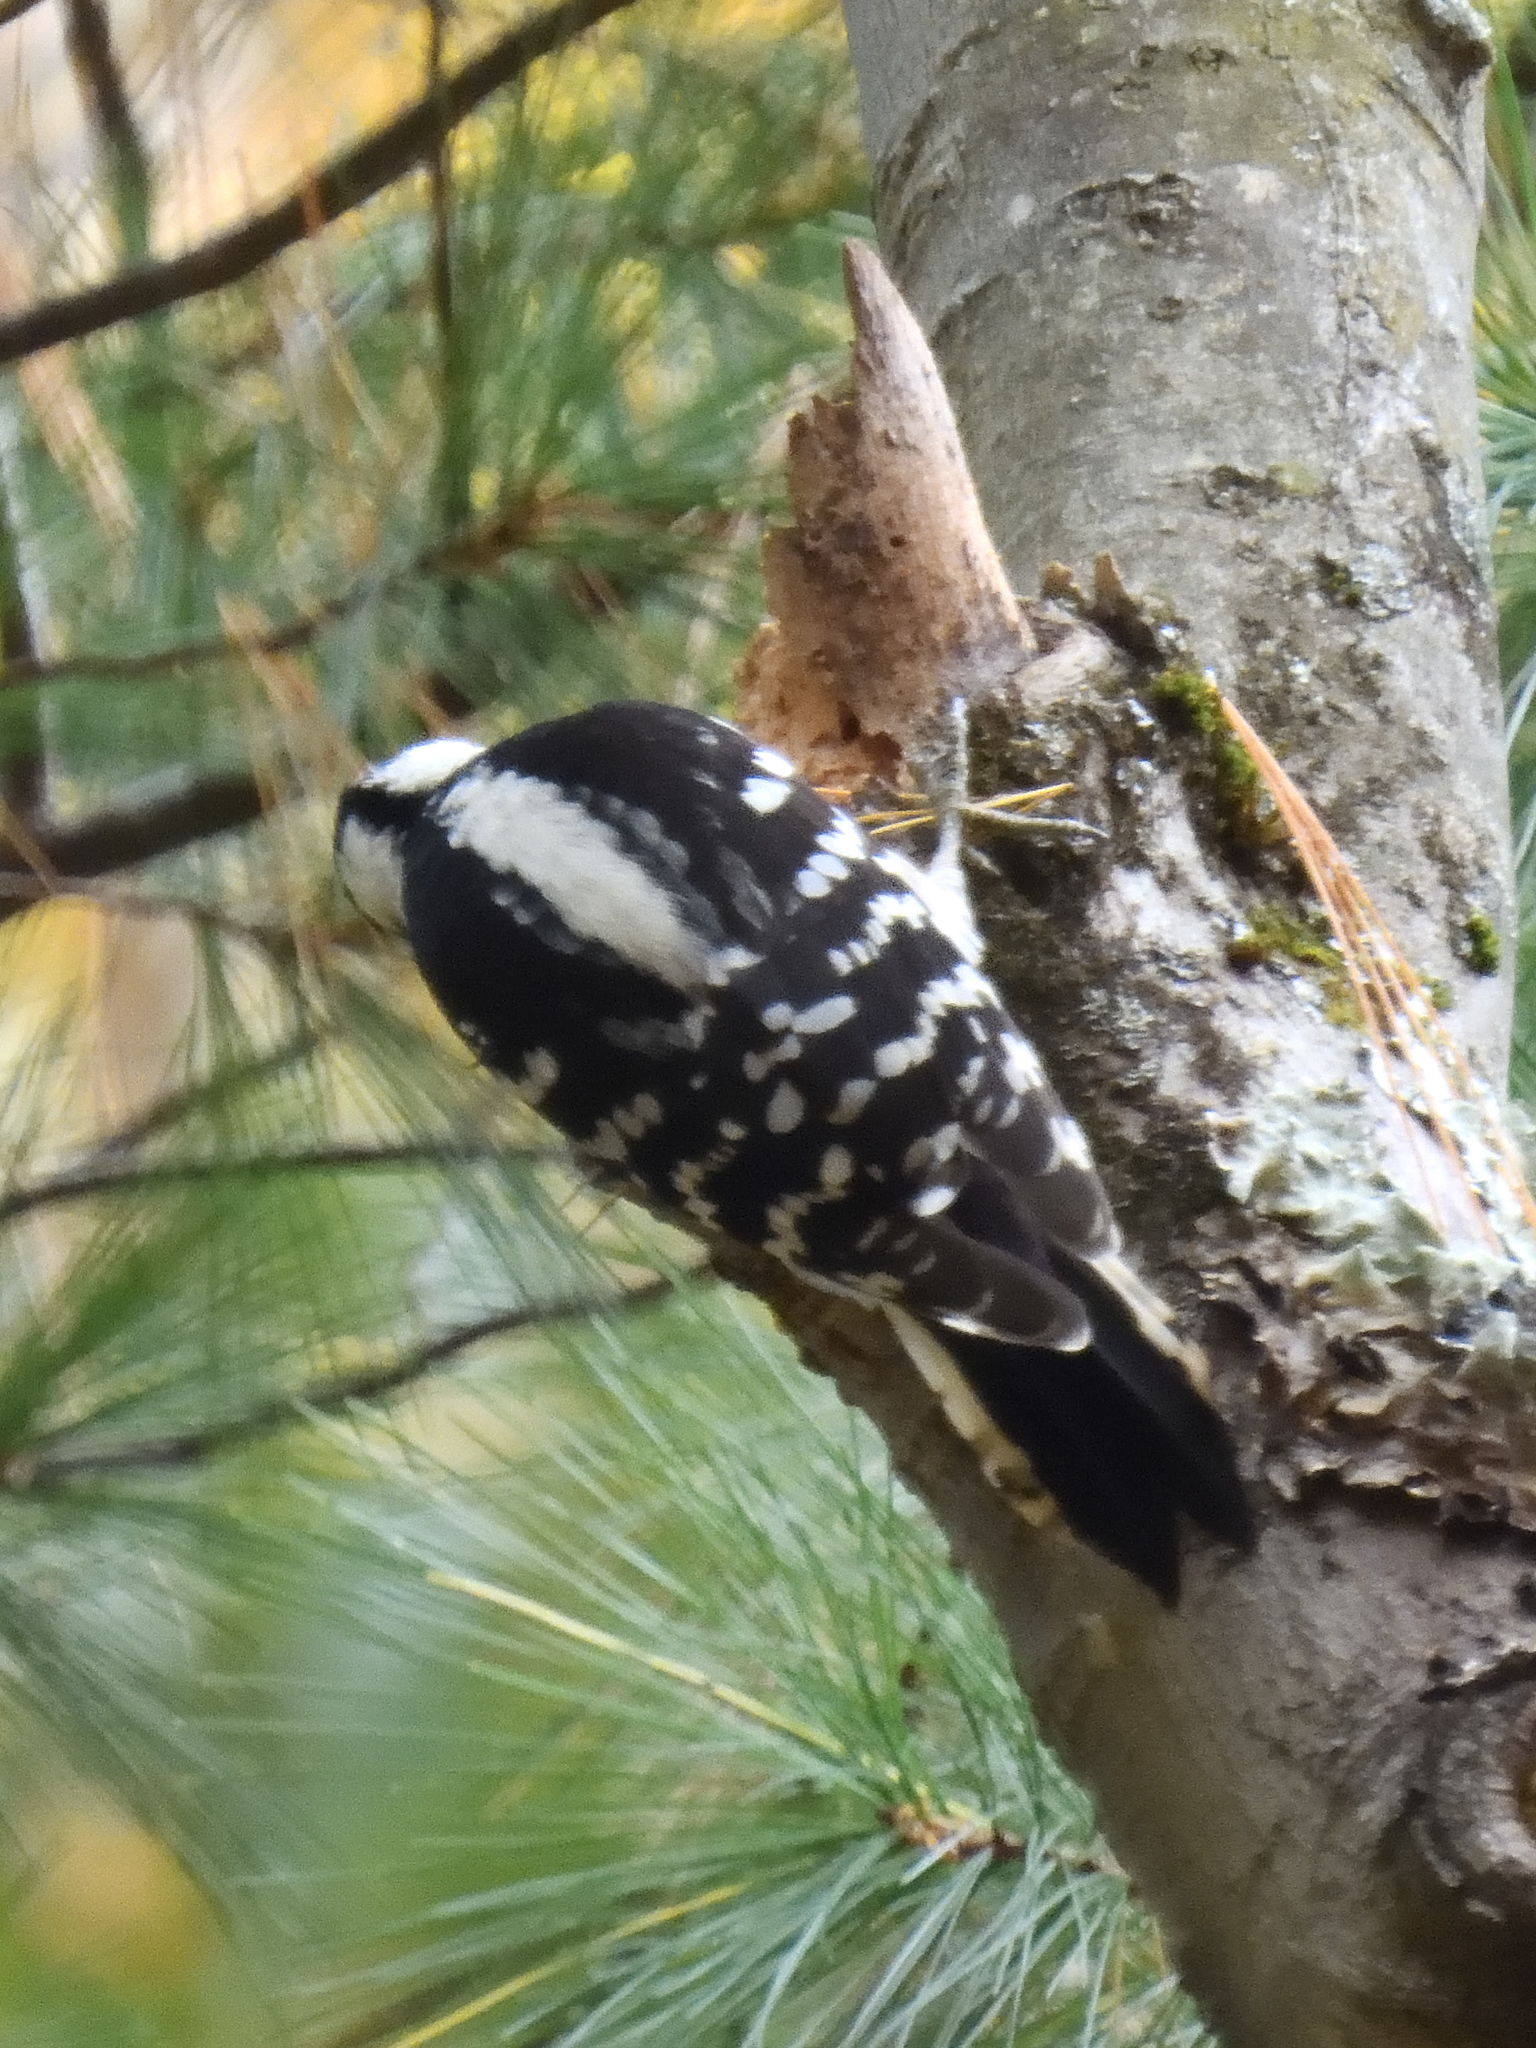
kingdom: Animalia
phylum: Chordata
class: Aves
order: Piciformes
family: Picidae
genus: Dryobates
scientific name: Dryobates pubescens
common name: Downy woodpecker
